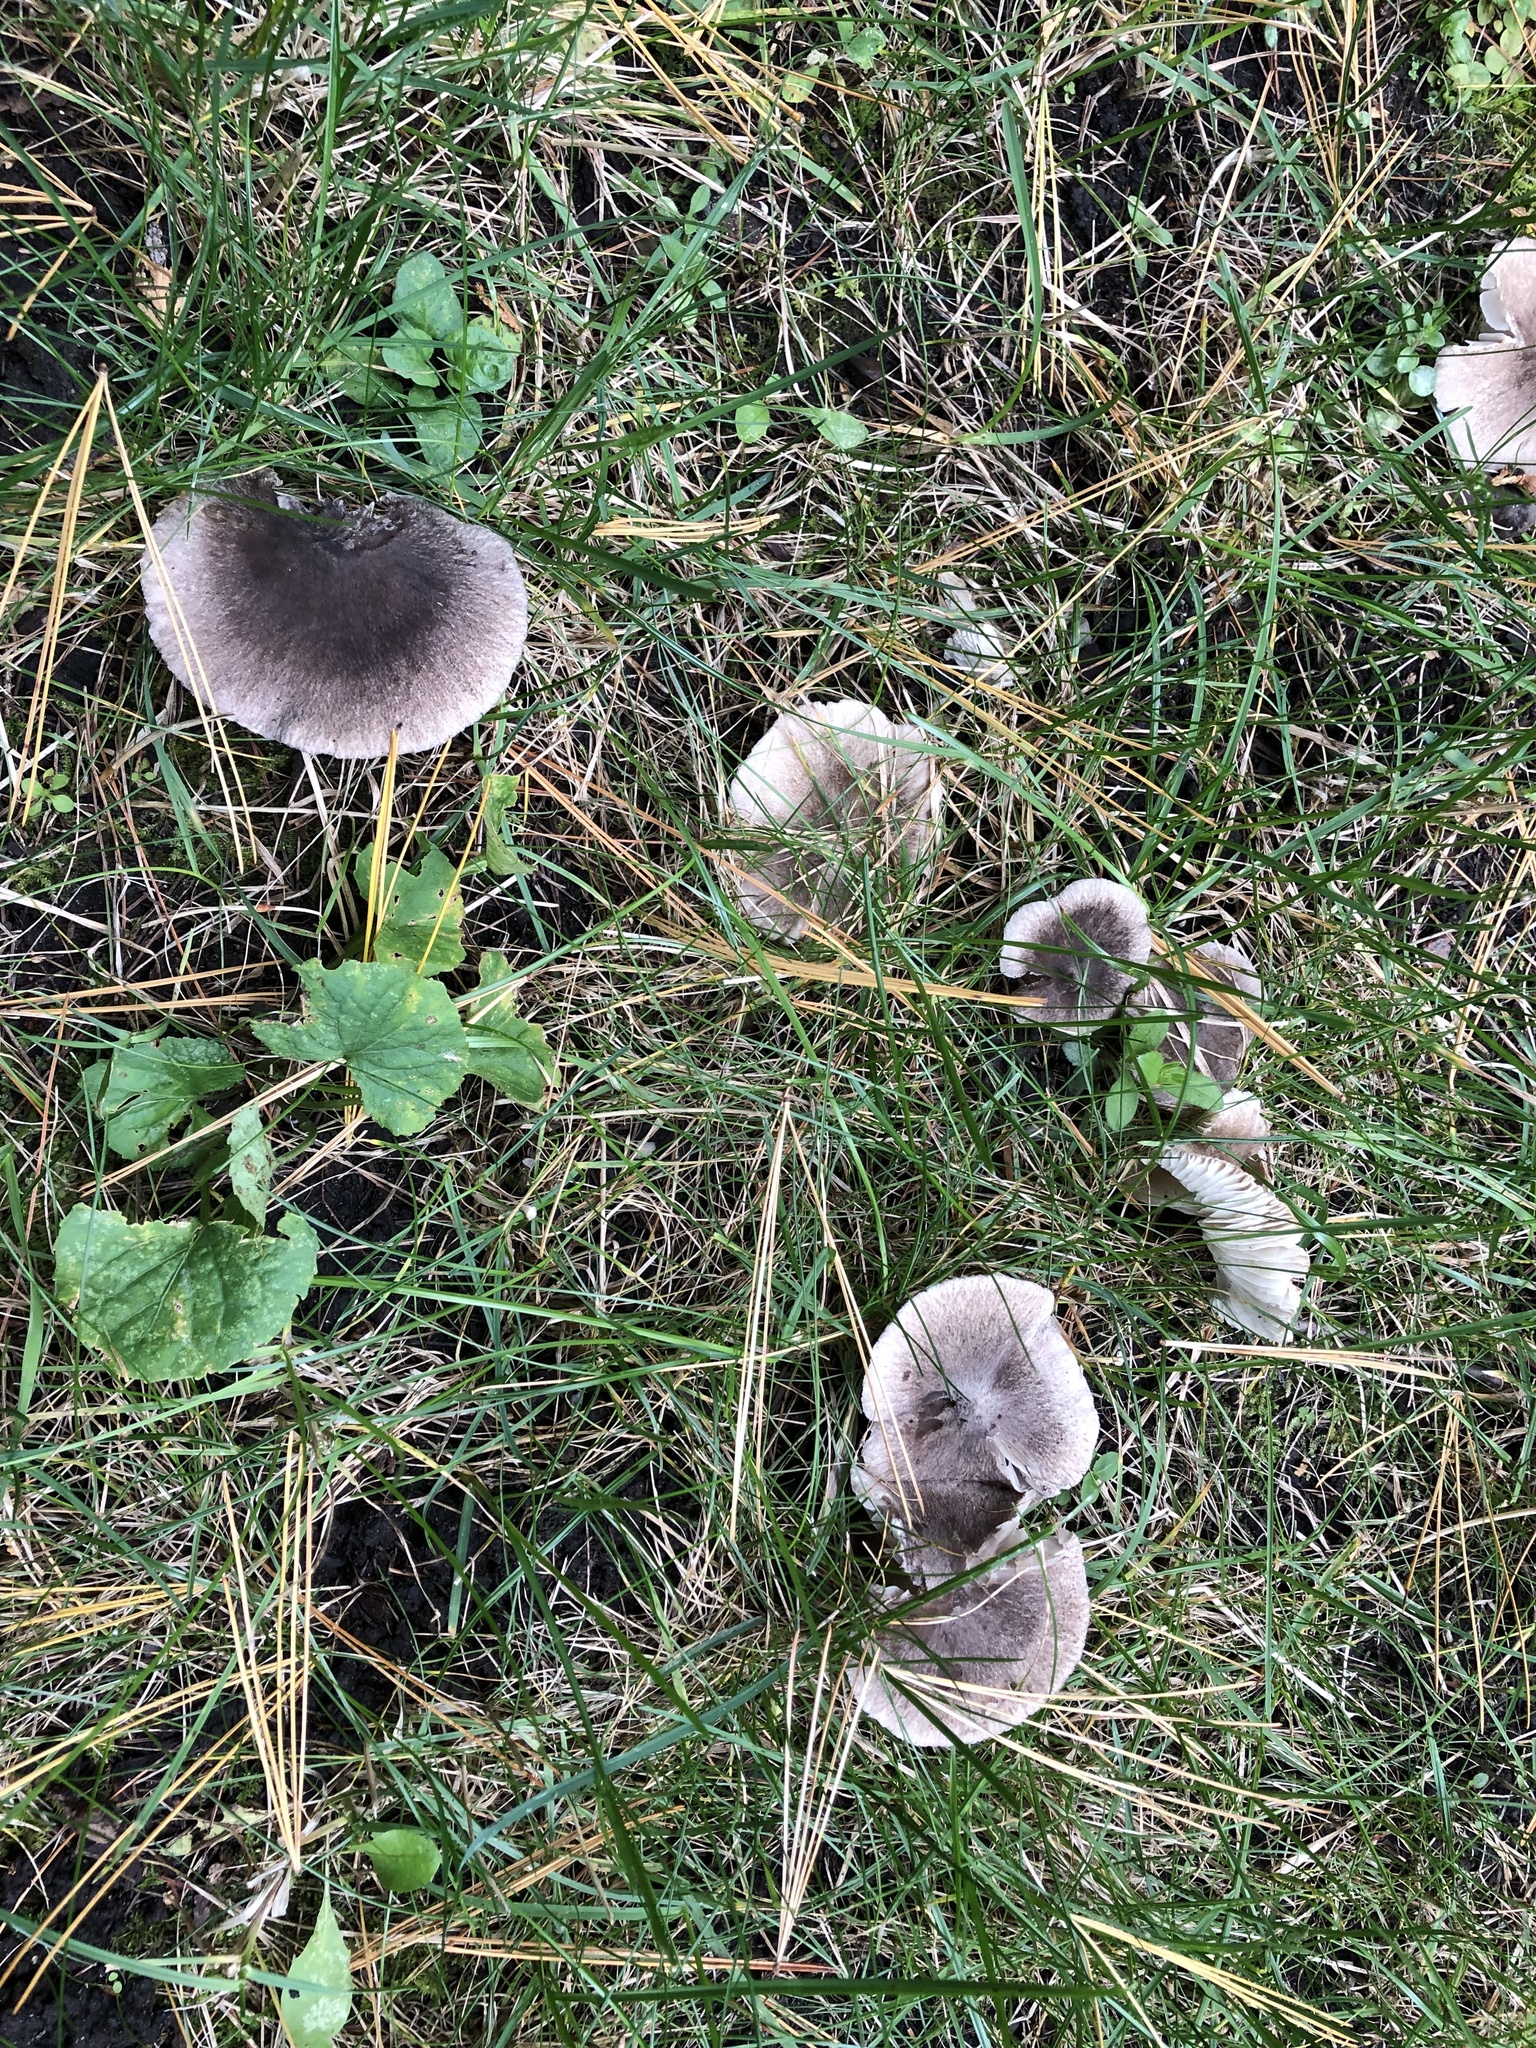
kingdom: Fungi
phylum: Basidiomycota
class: Agaricomycetes
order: Agaricales
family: Tricholomataceae
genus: Tricholoma
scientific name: Tricholoma terreum
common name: Grey knight
